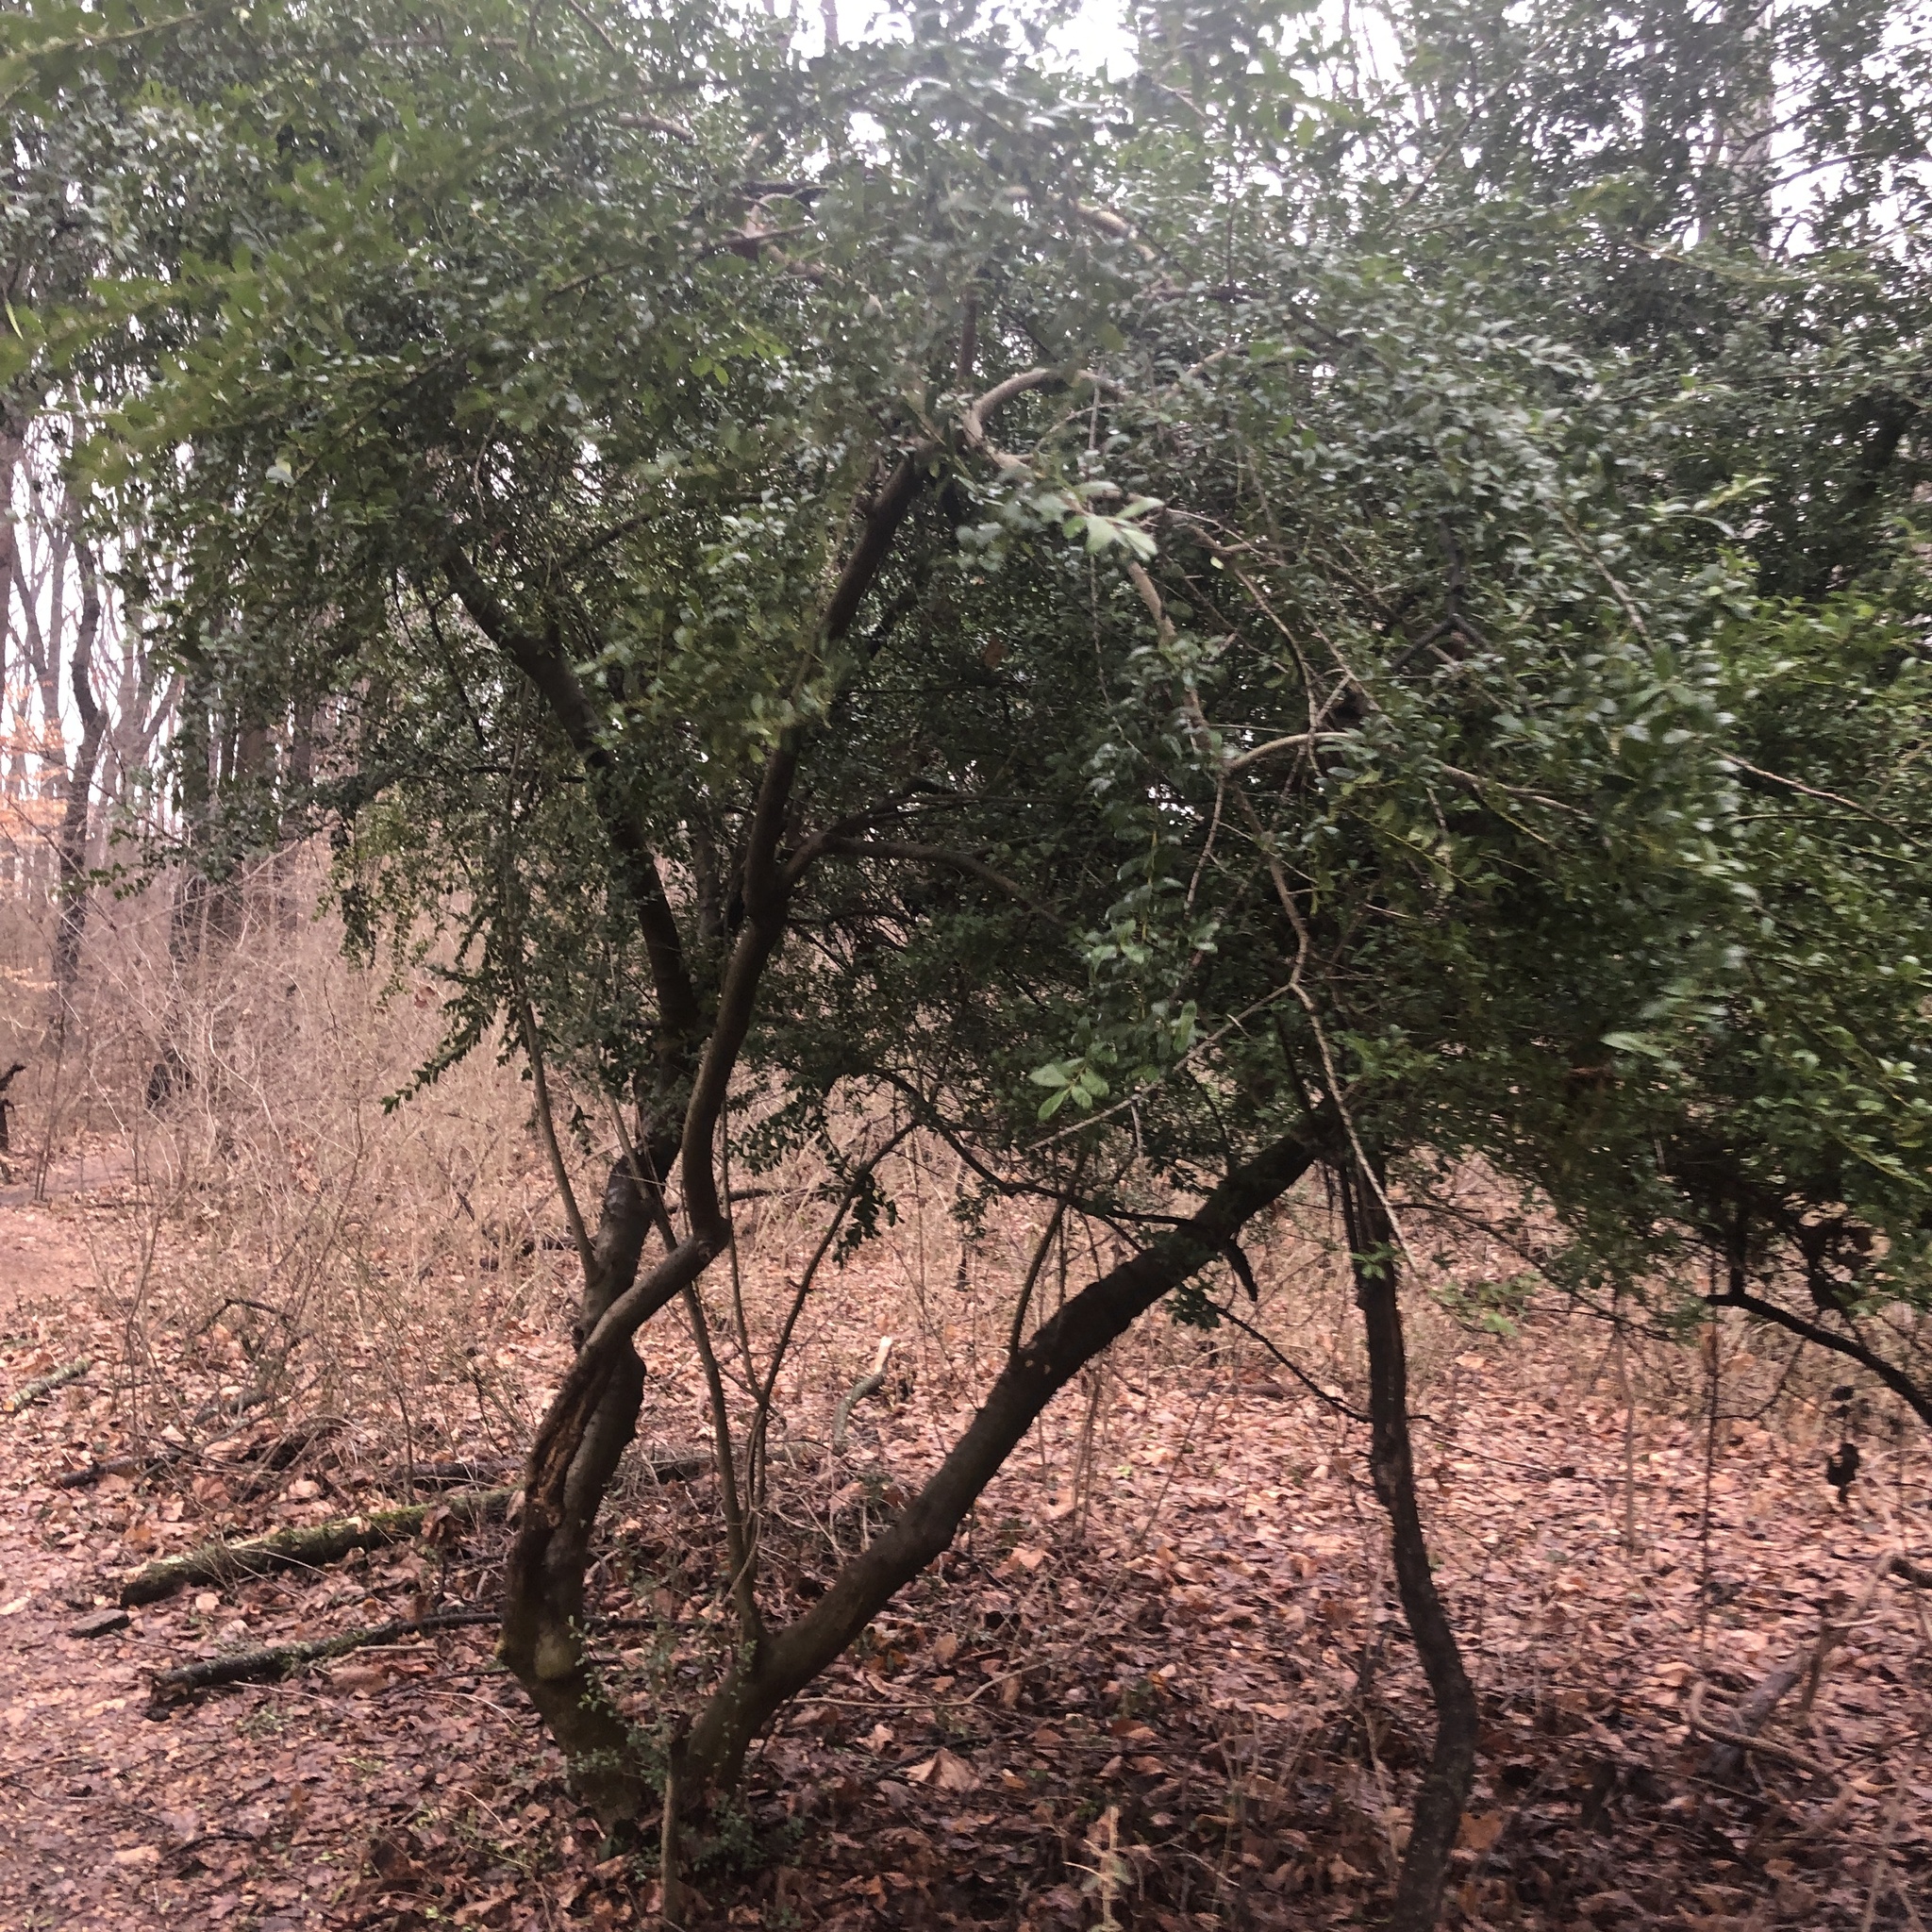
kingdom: Plantae
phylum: Tracheophyta
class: Magnoliopsida
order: Aquifoliales
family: Aquifoliaceae
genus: Ilex
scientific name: Ilex crenata
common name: Japanese holly
